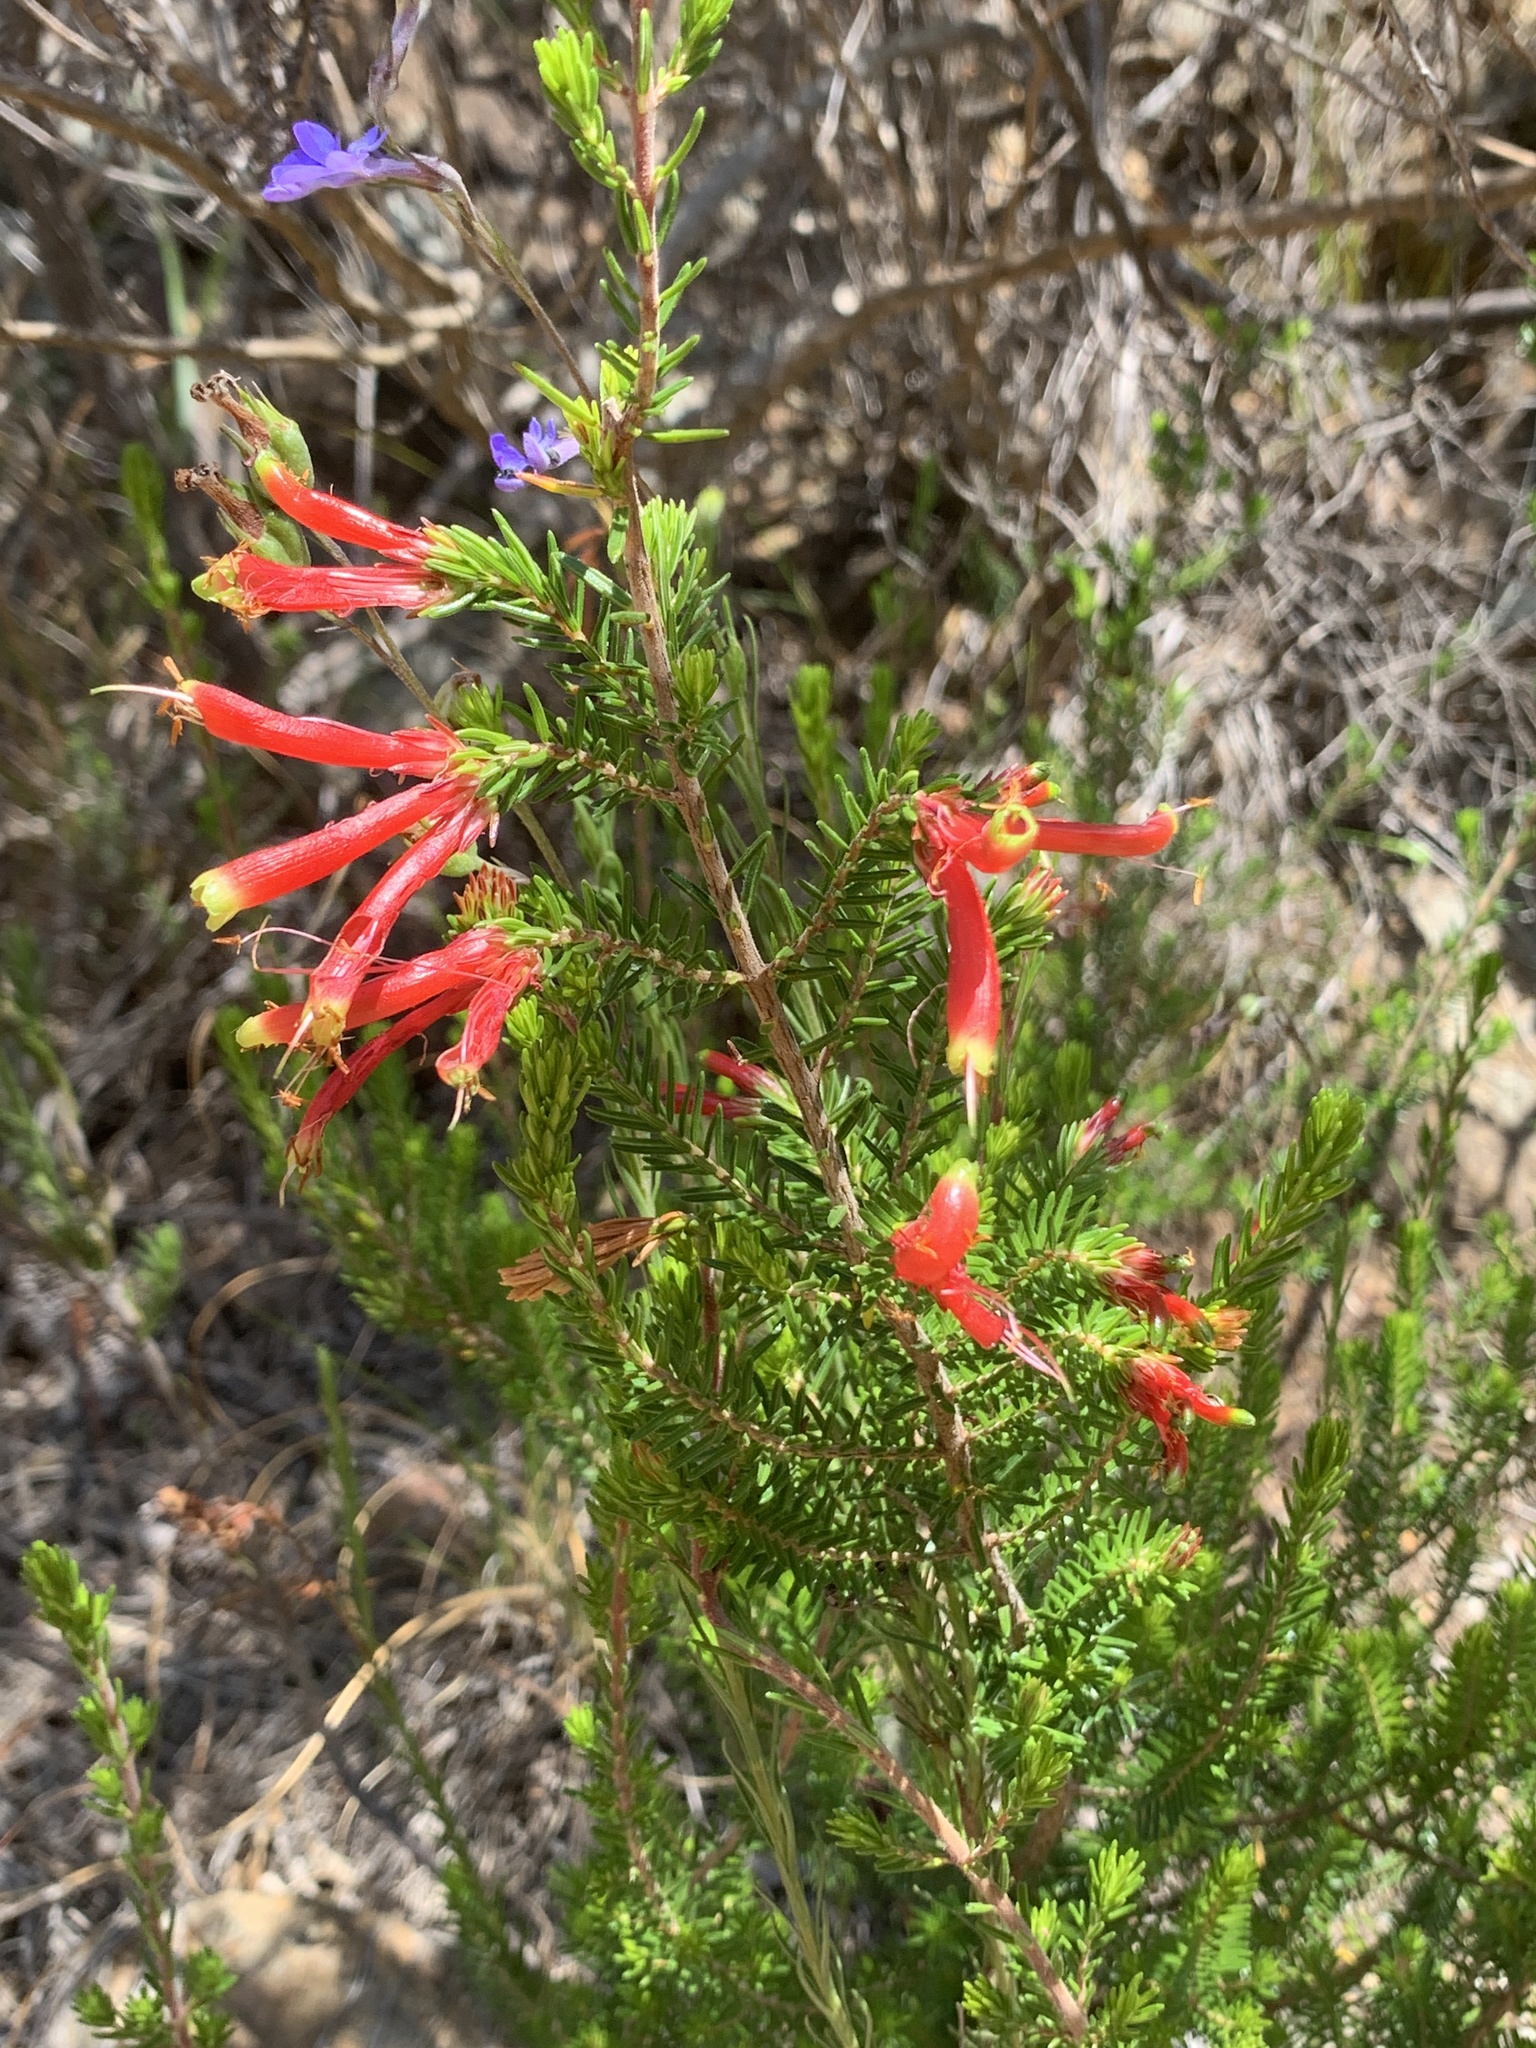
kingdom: Plantae
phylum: Tracheophyta
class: Magnoliopsida
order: Ericales
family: Ericaceae
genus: Erica
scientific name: Erica discolor
